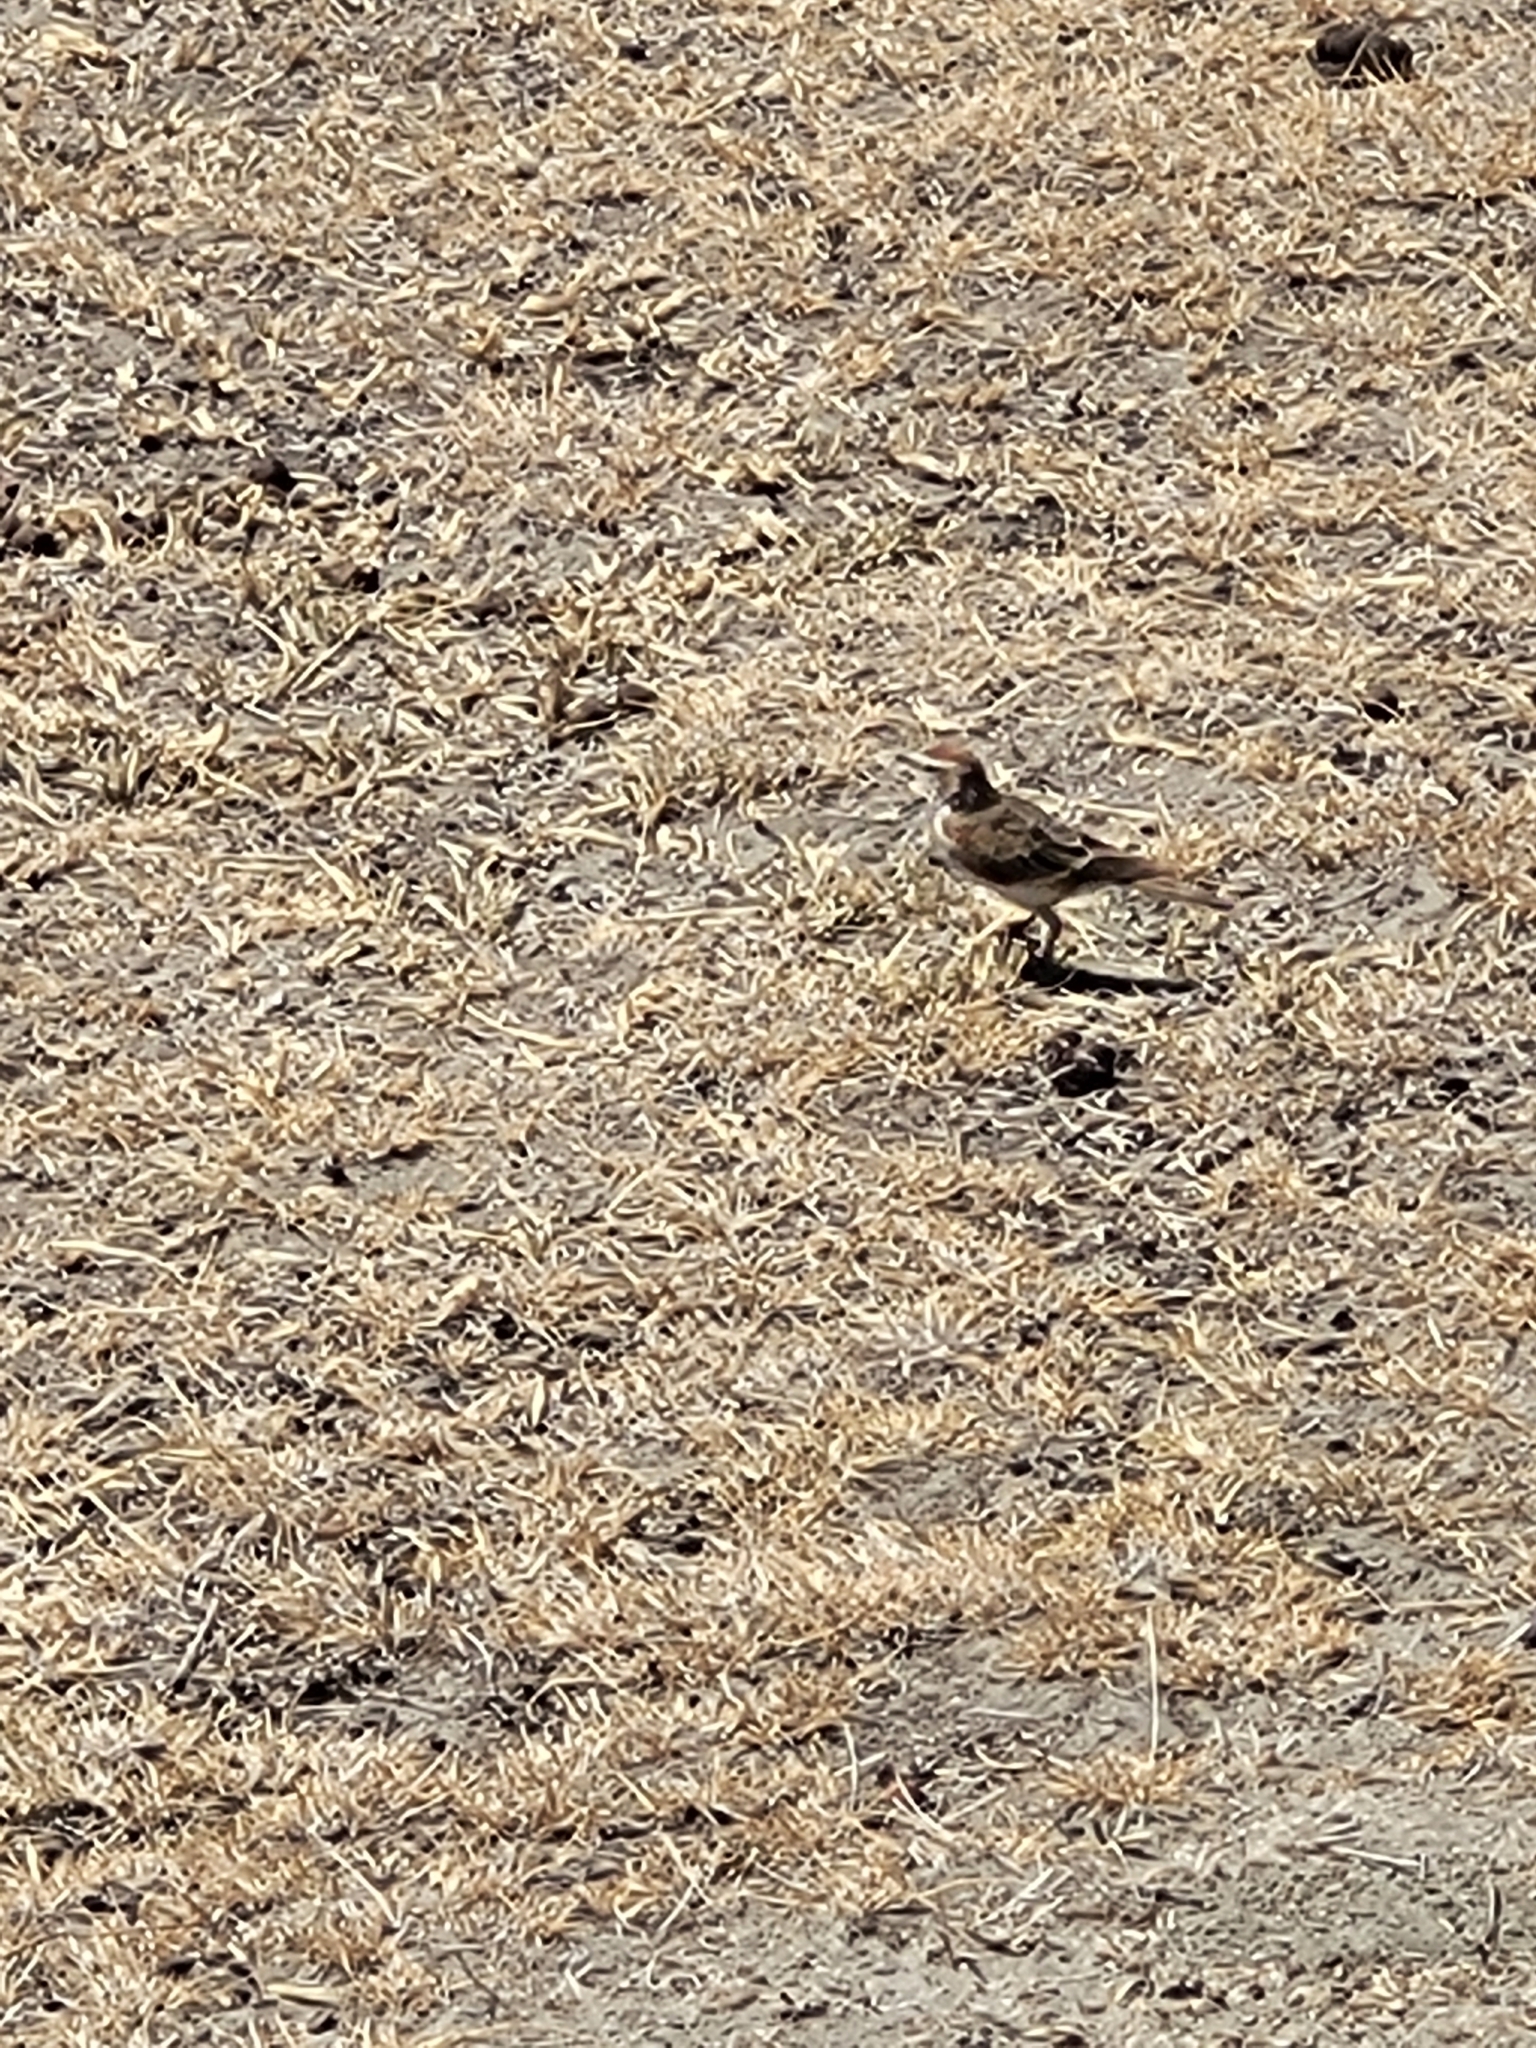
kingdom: Animalia
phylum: Chordata
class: Aves
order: Passeriformes
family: Alaudidae
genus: Calandrella
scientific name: Calandrella cinerea
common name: Red-capped lark
